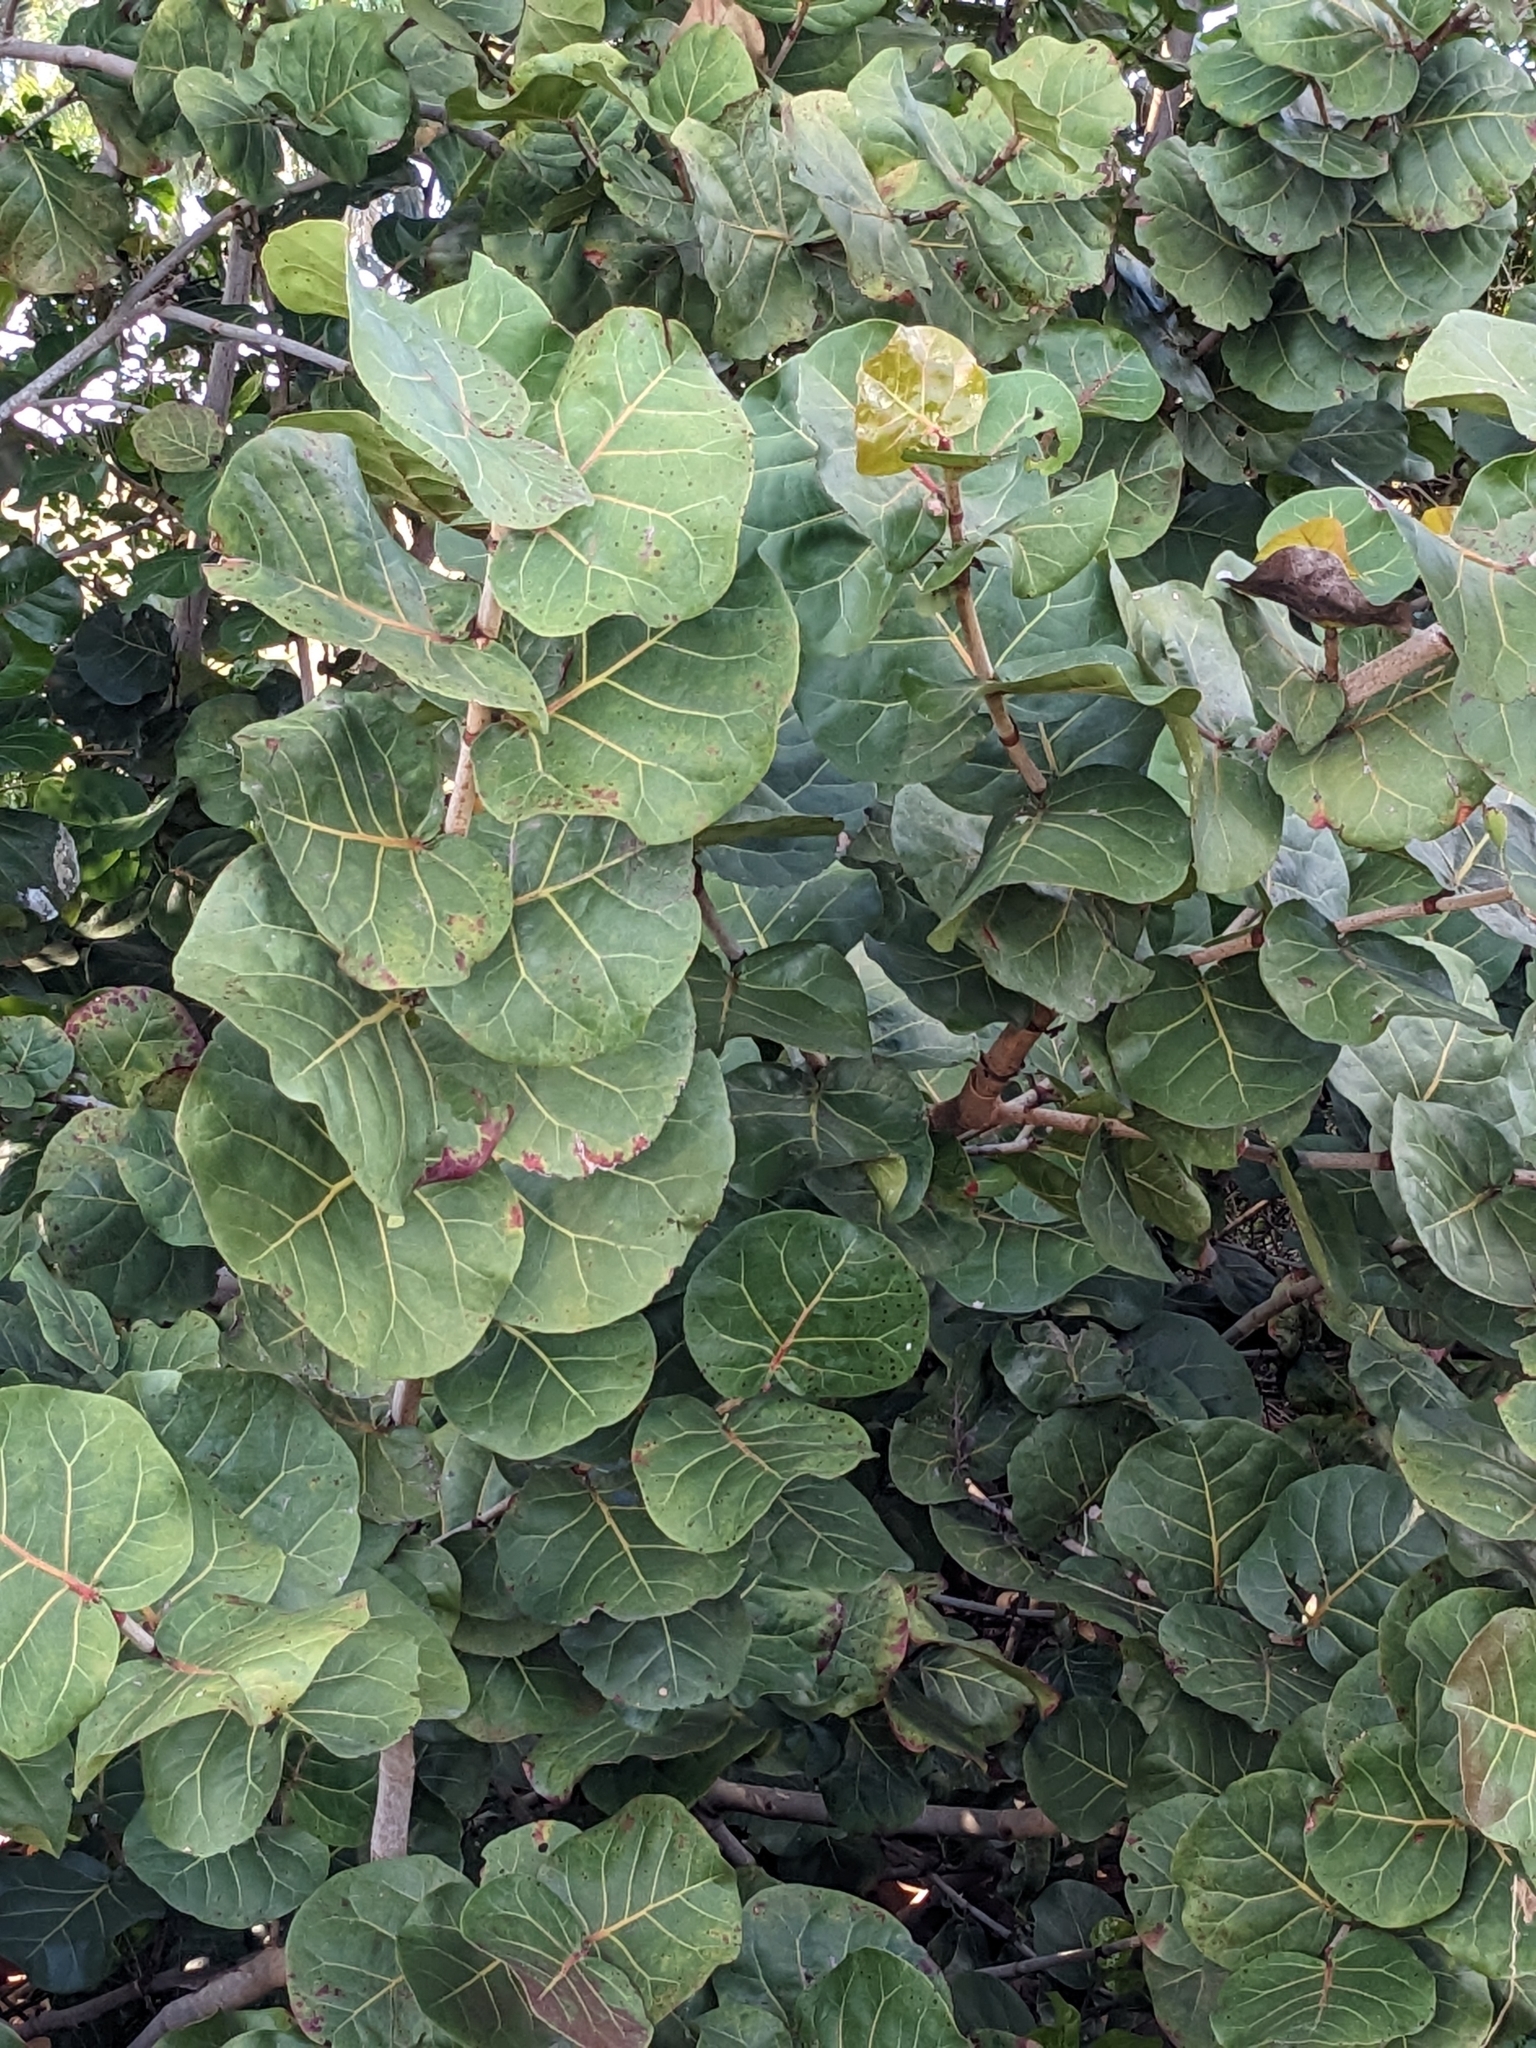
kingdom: Plantae
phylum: Tracheophyta
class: Magnoliopsida
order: Caryophyllales
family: Polygonaceae
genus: Coccoloba
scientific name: Coccoloba uvifera
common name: Seagrape
